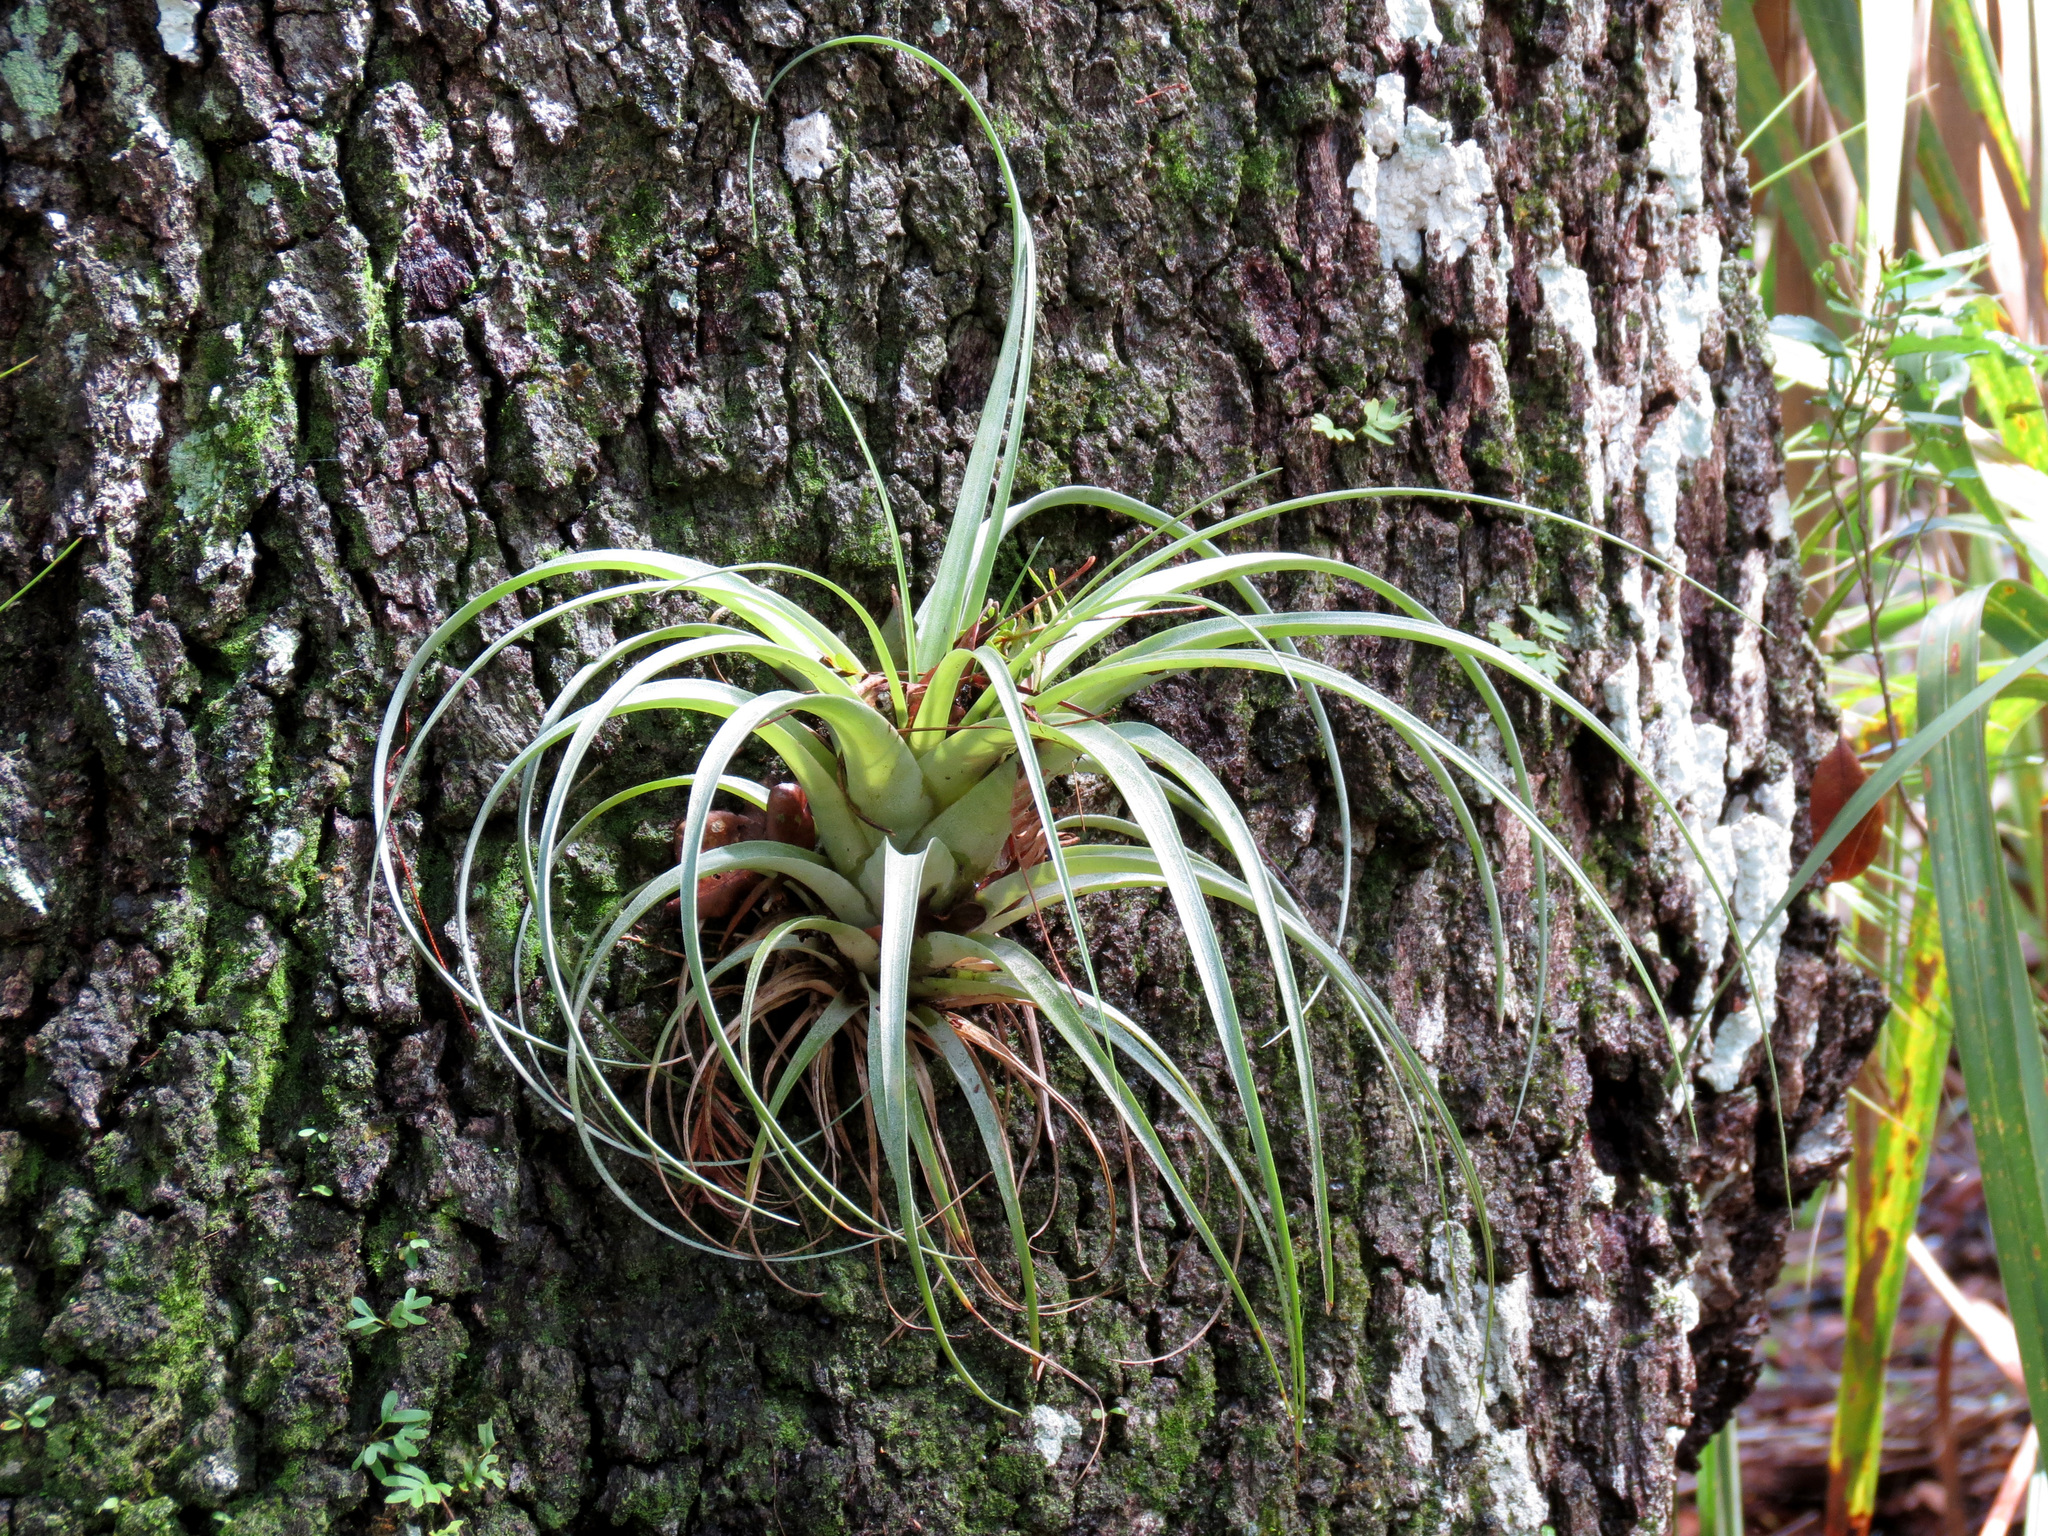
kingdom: Plantae
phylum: Tracheophyta
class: Liliopsida
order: Poales
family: Bromeliaceae
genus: Tillandsia
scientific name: Tillandsia utriculata
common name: Wild pine
